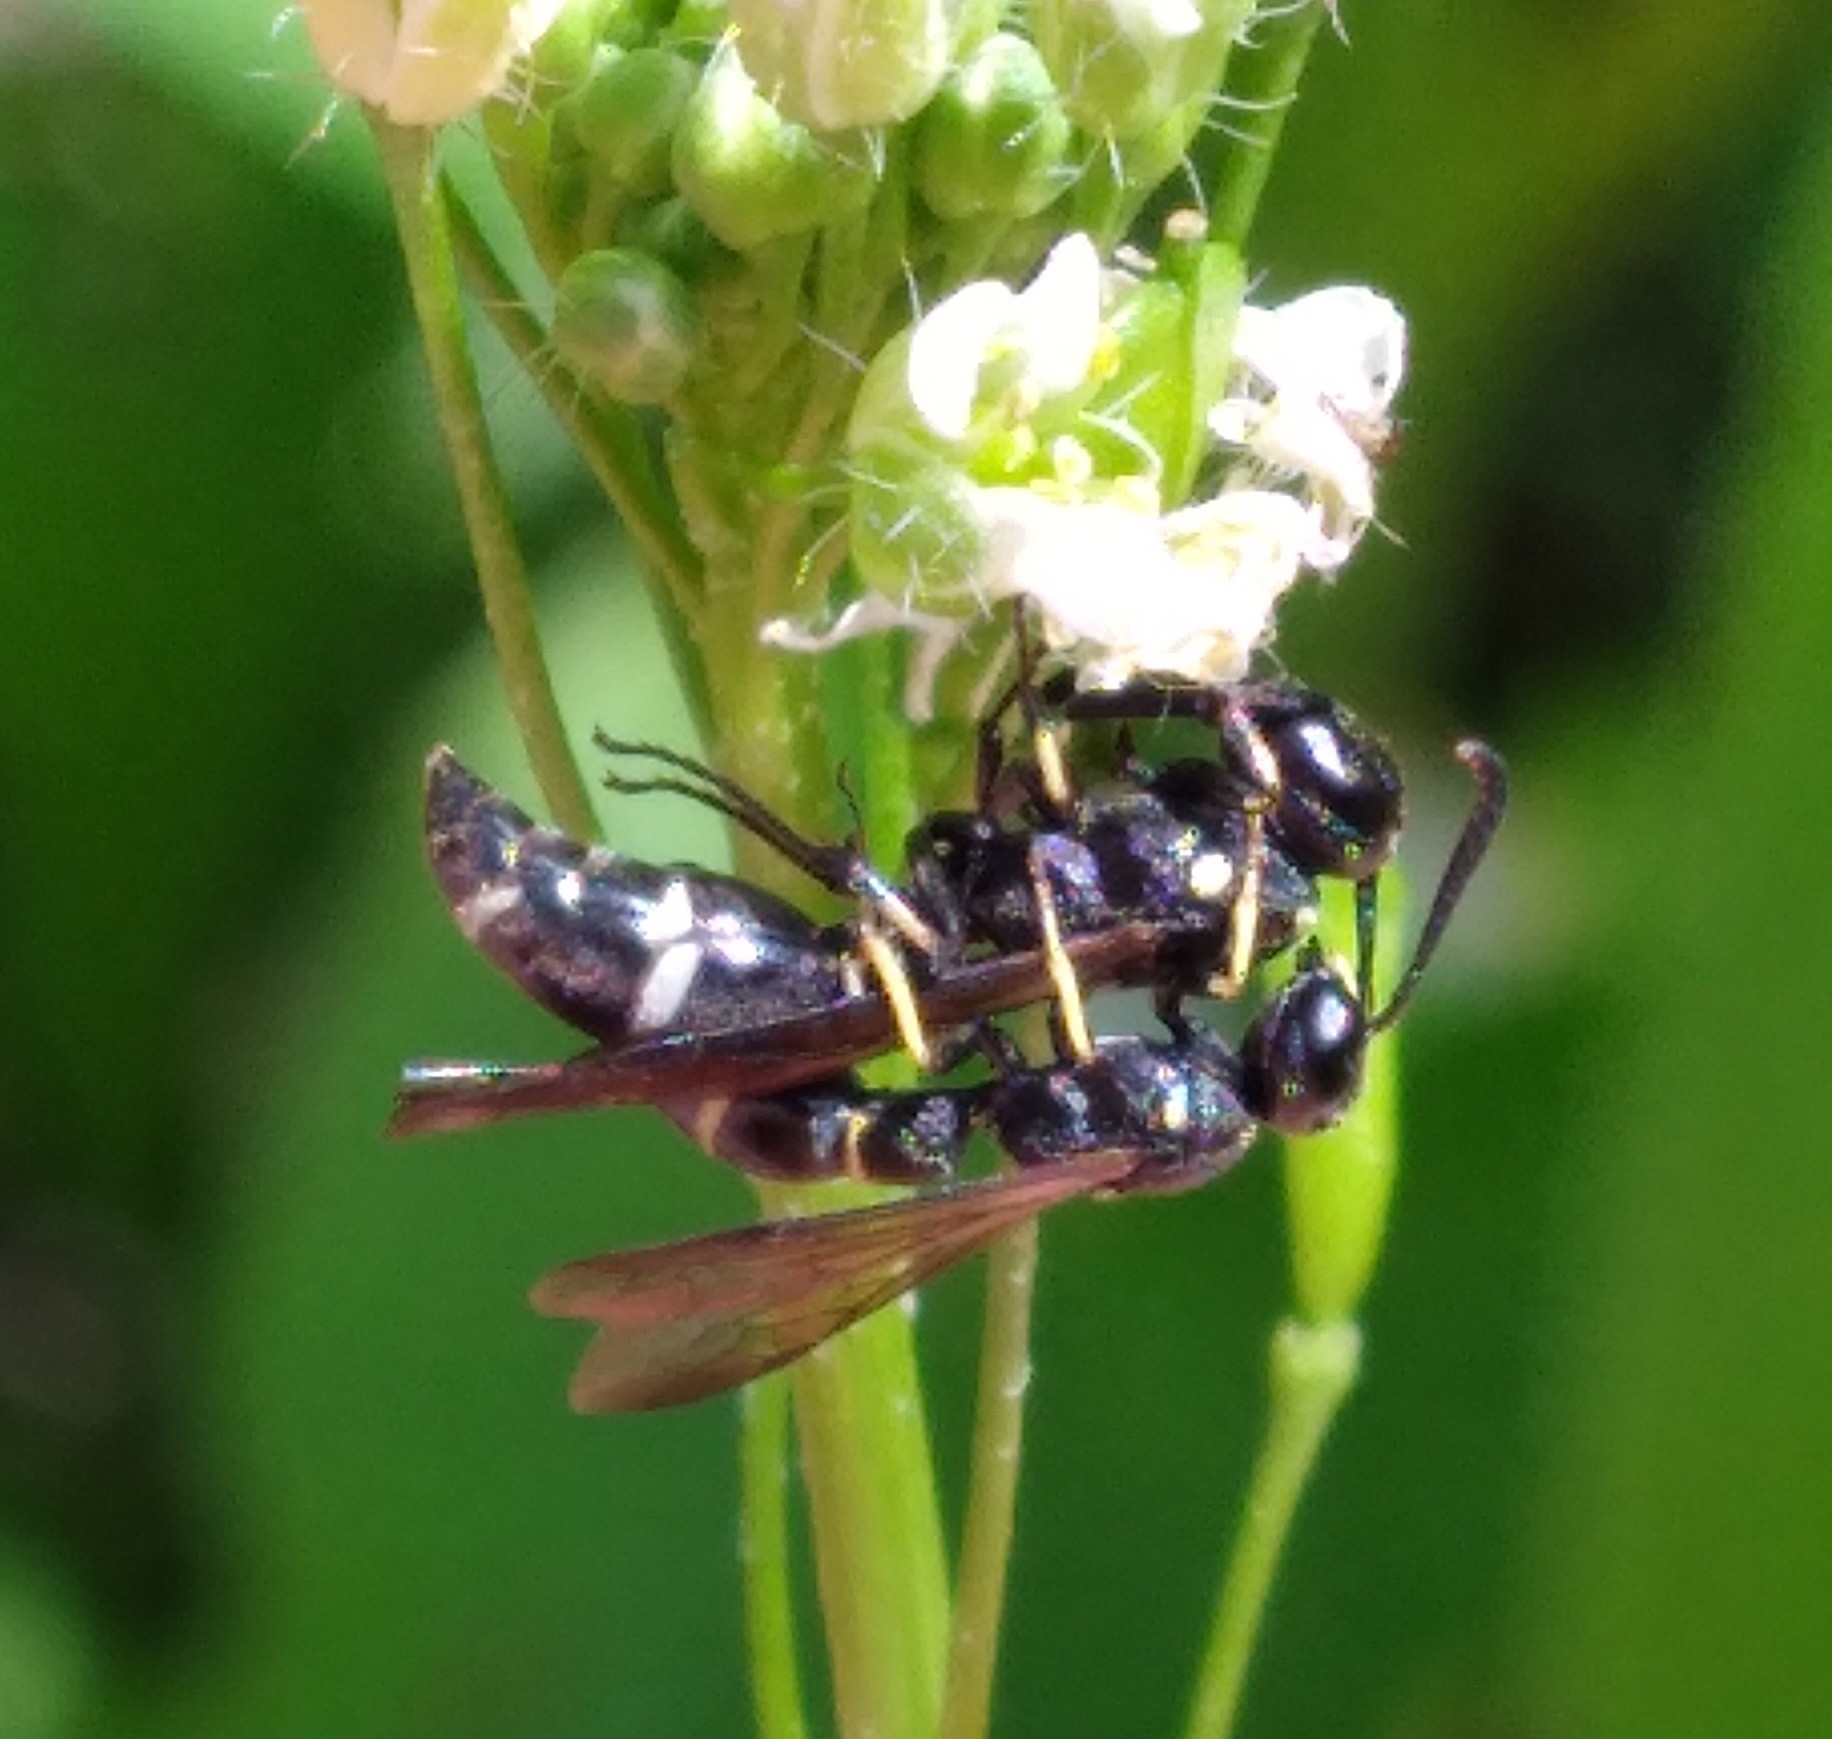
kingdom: Animalia
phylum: Arthropoda
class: Insecta
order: Hymenoptera
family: Eumenidae
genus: Symmorphus
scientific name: Symmorphus
